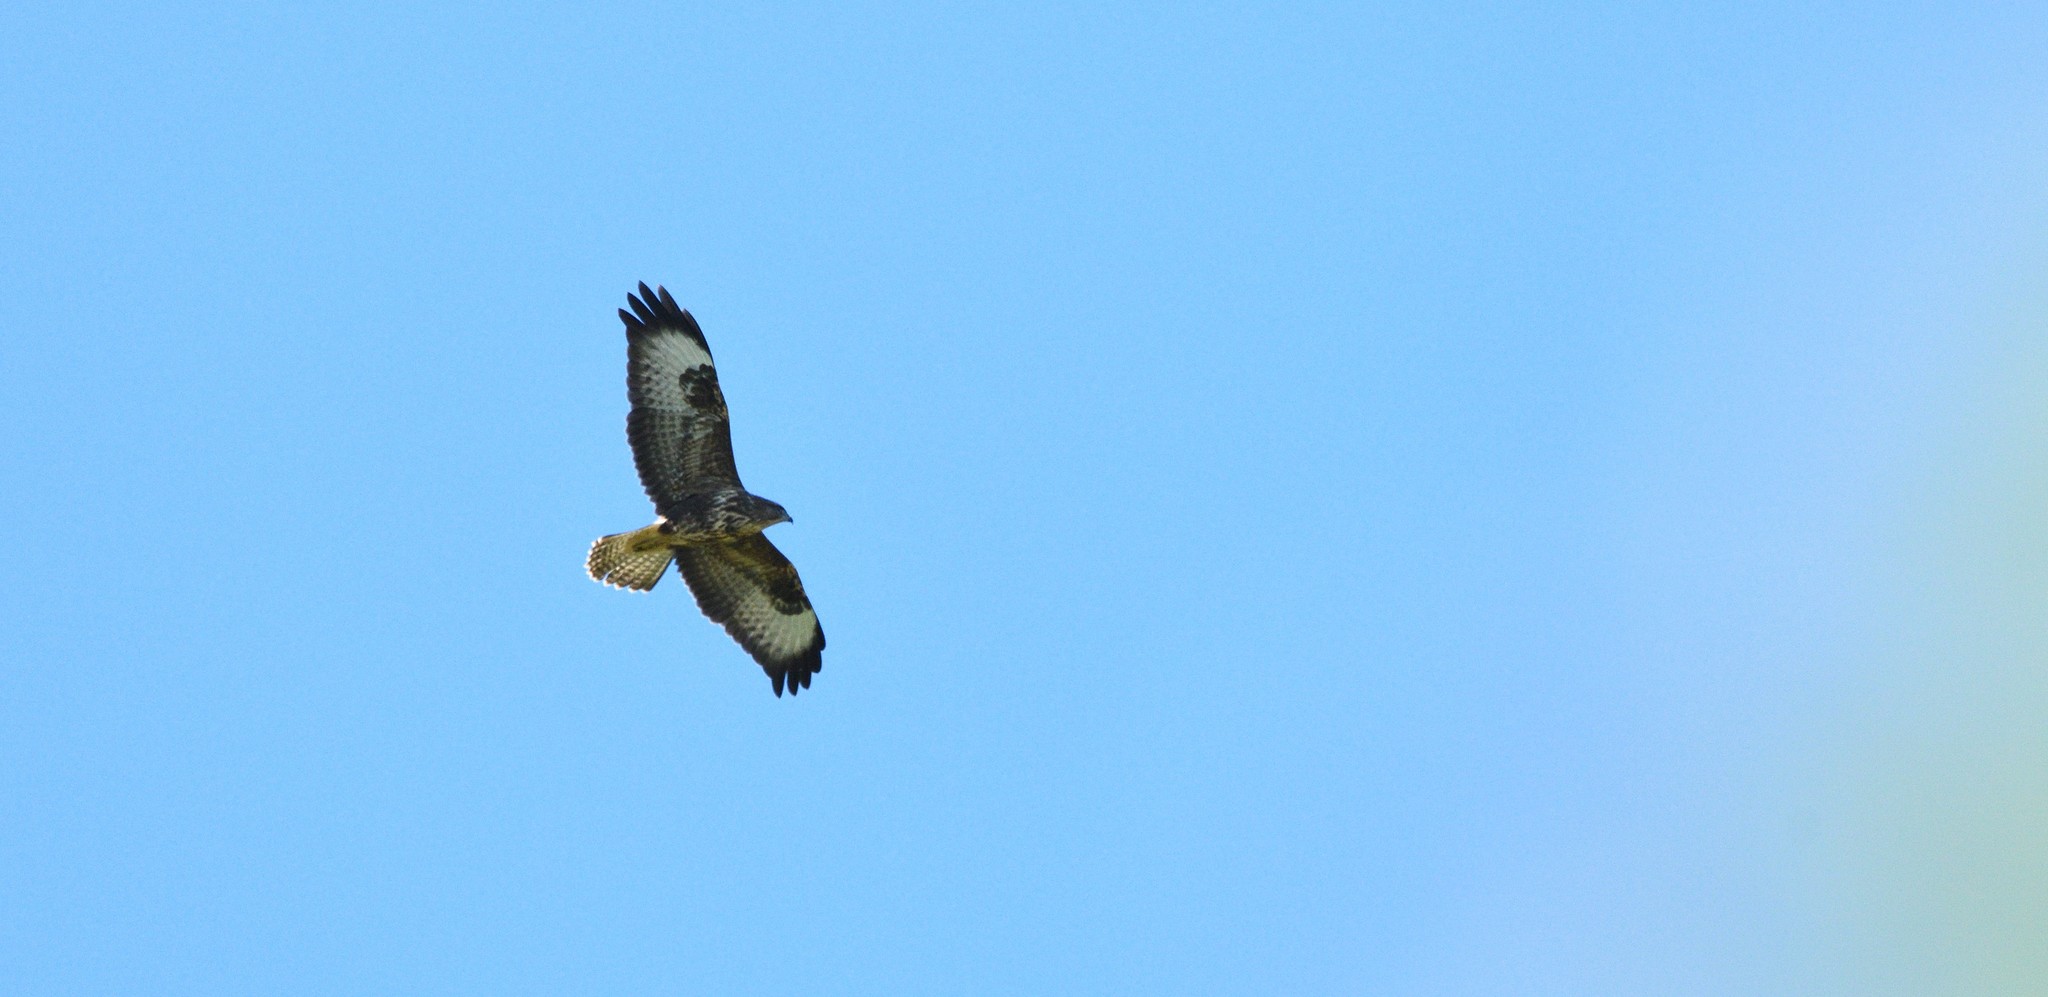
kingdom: Animalia
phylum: Chordata
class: Aves
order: Accipitriformes
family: Accipitridae
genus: Buteo
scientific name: Buteo buteo
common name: Common buzzard
